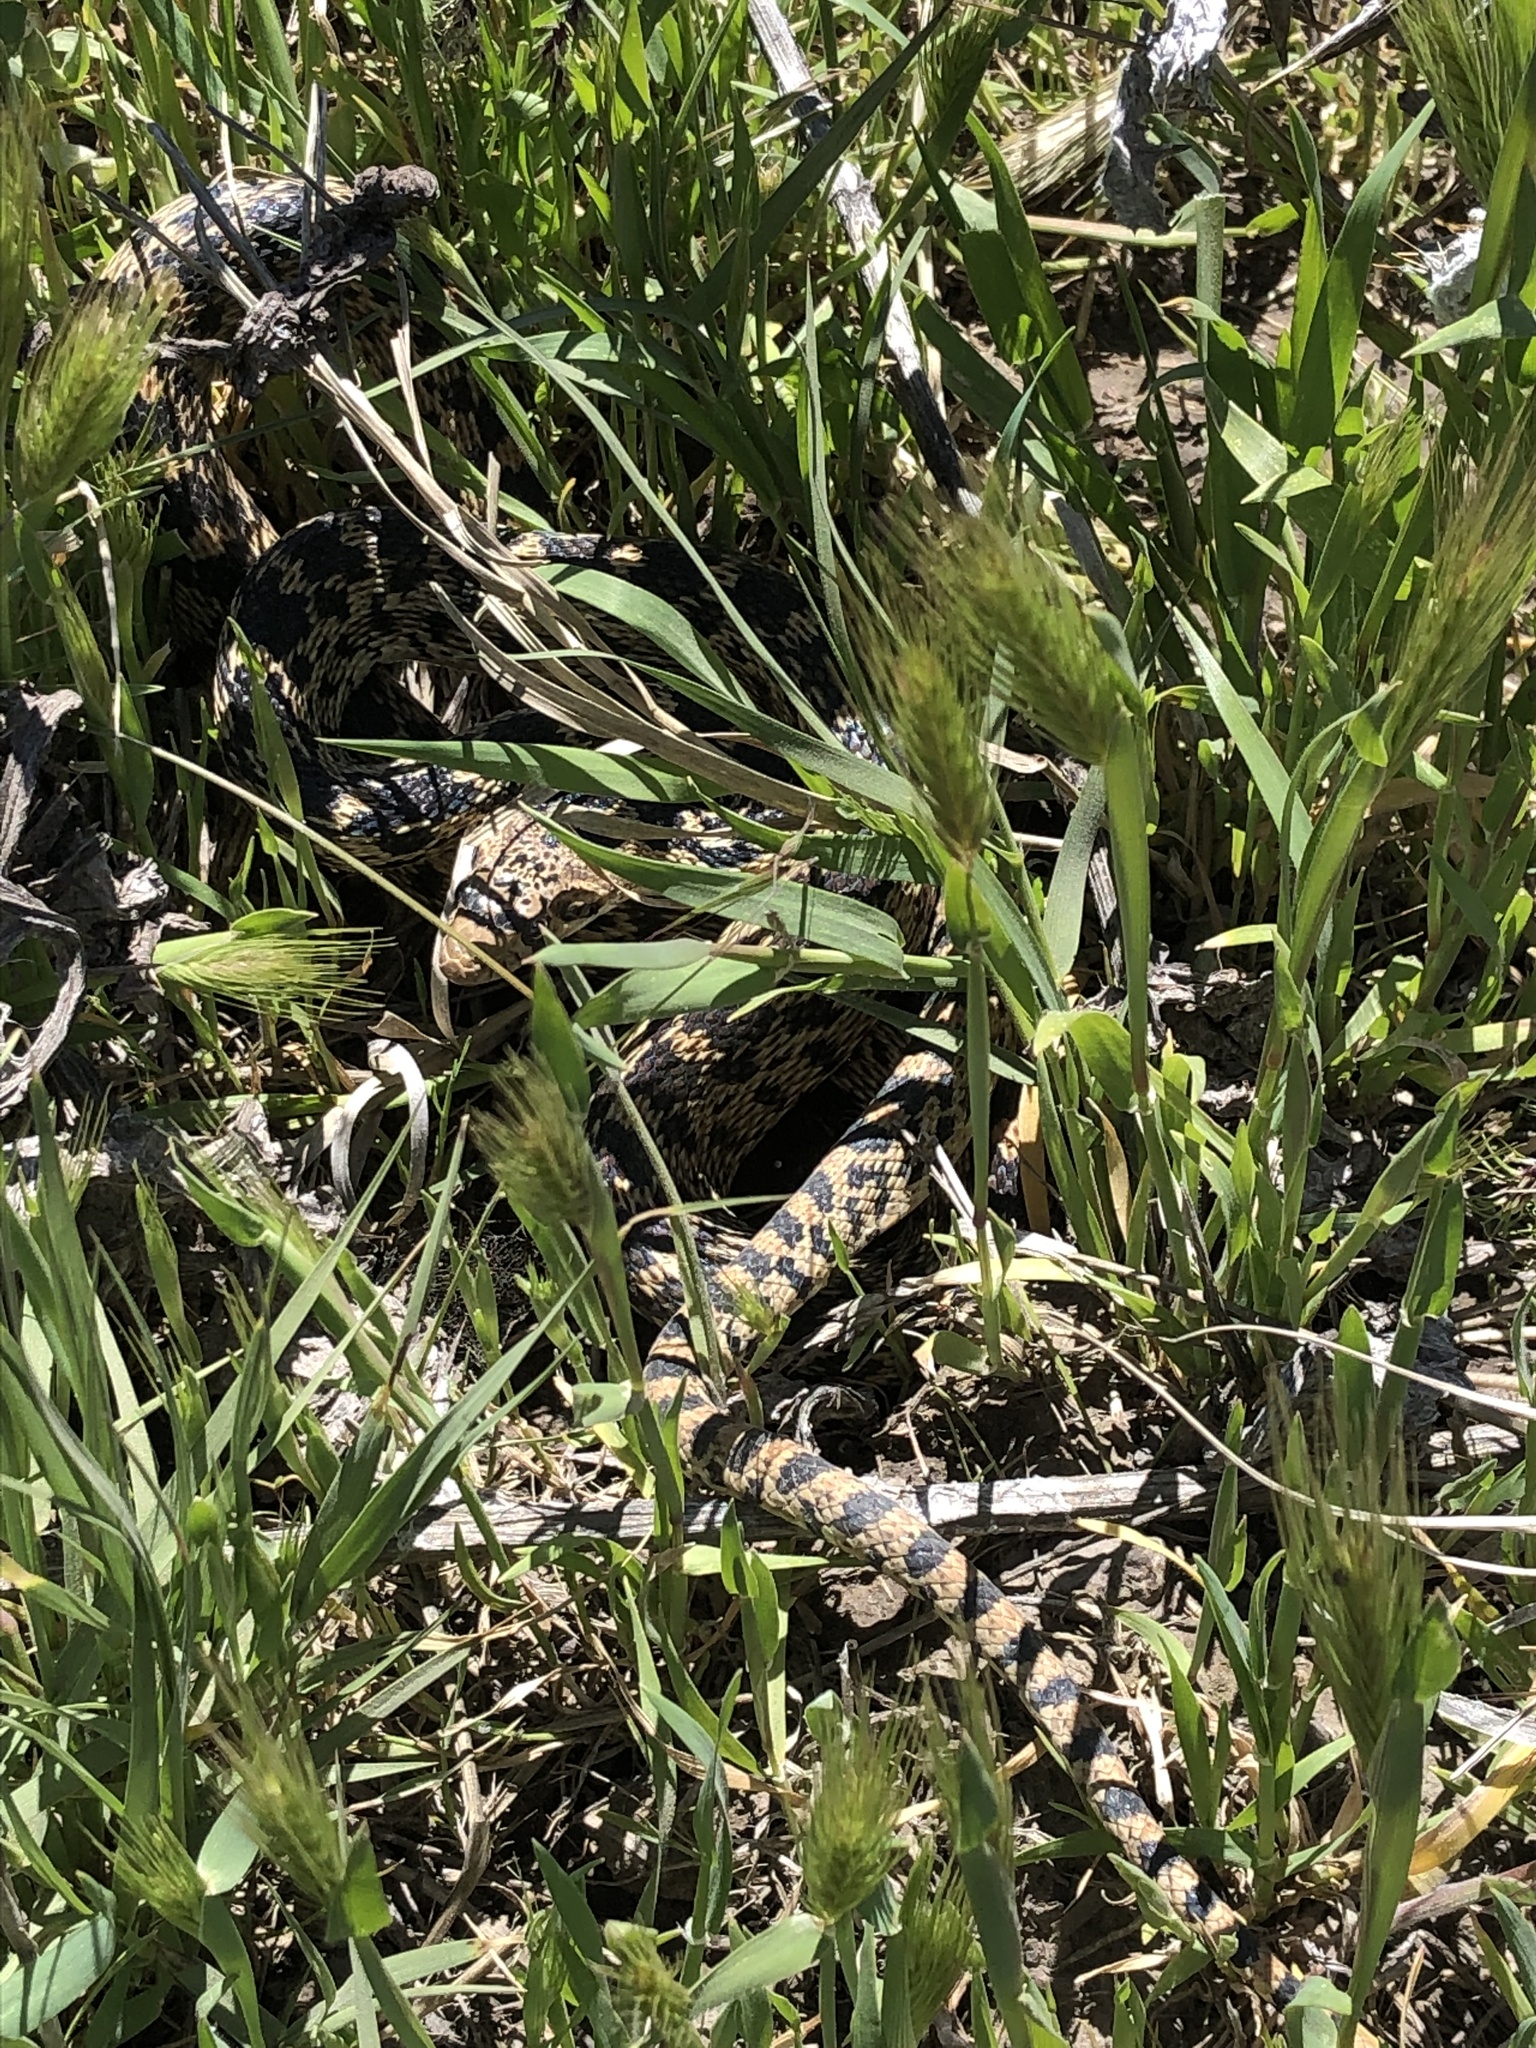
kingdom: Animalia
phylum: Chordata
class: Squamata
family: Colubridae
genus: Pituophis
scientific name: Pituophis catenifer
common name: Gopher snake
